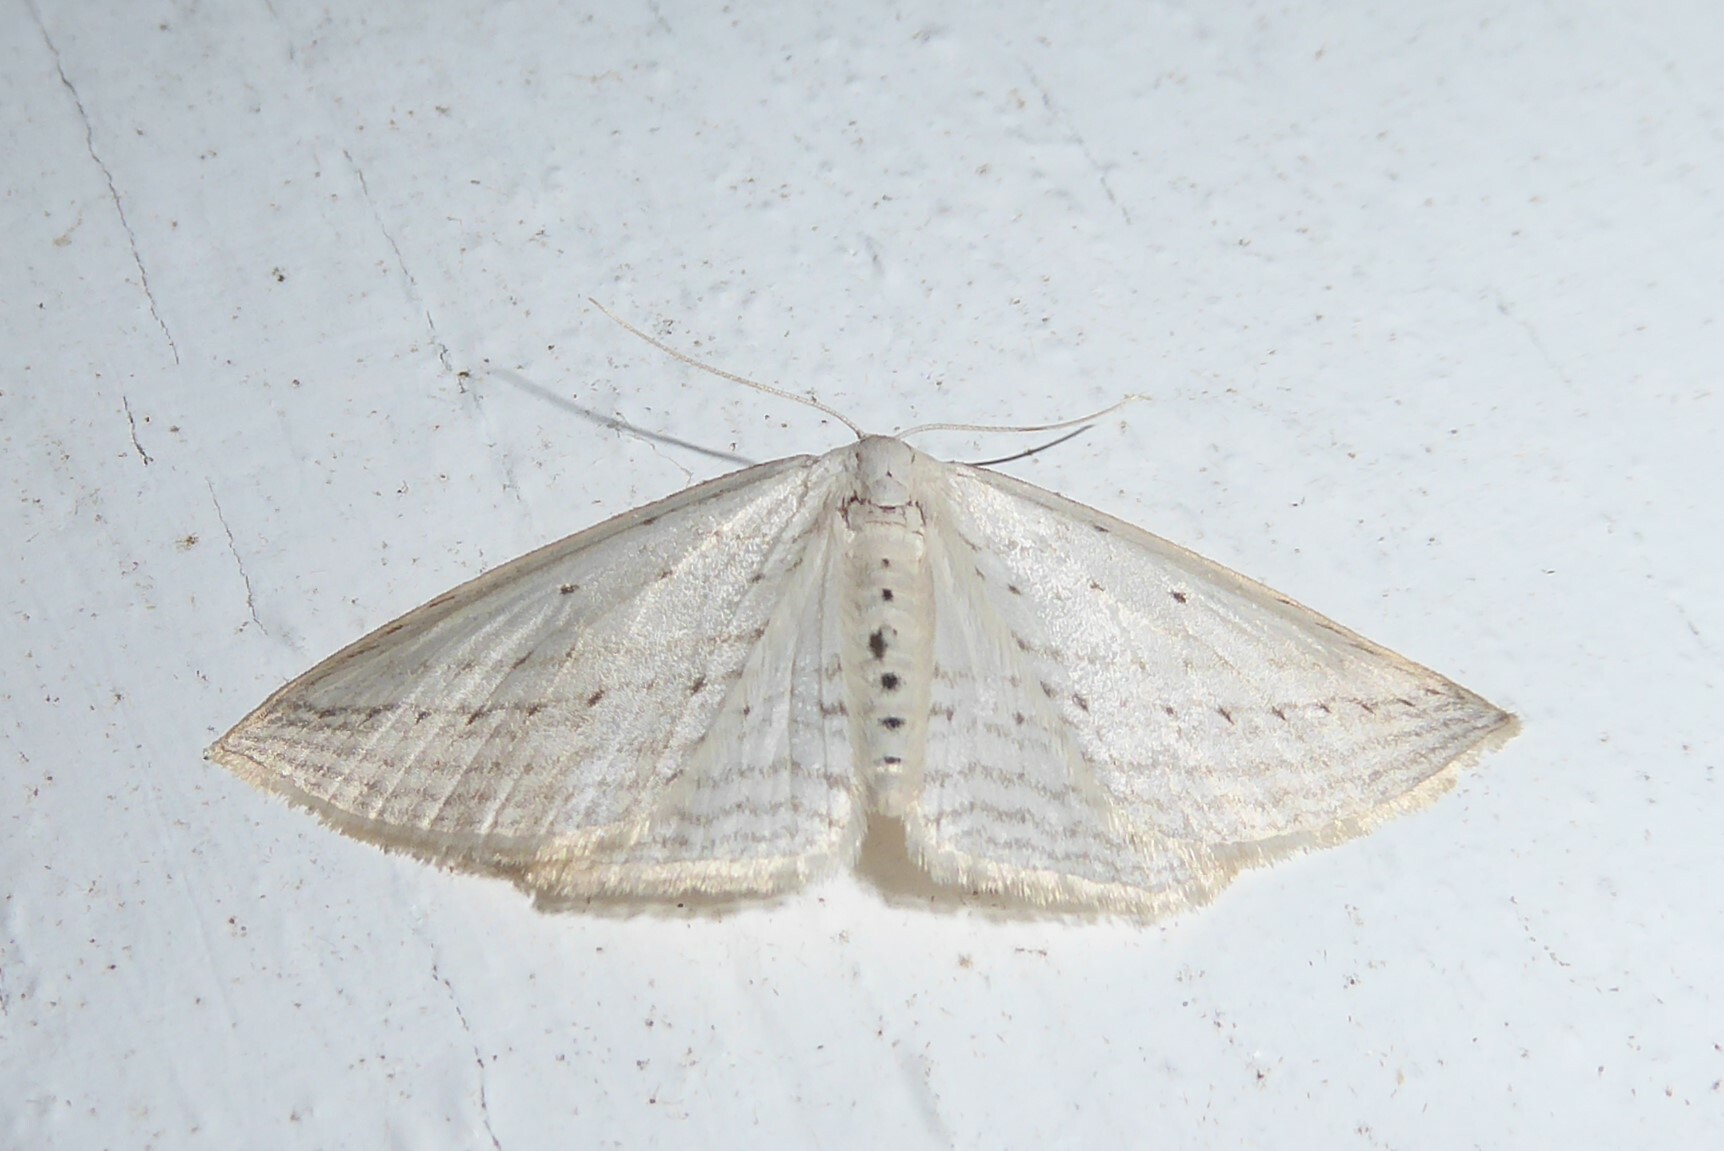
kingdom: Animalia
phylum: Arthropoda
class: Insecta
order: Lepidoptera
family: Geometridae
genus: Orthoclydon
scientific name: Orthoclydon praefectata
